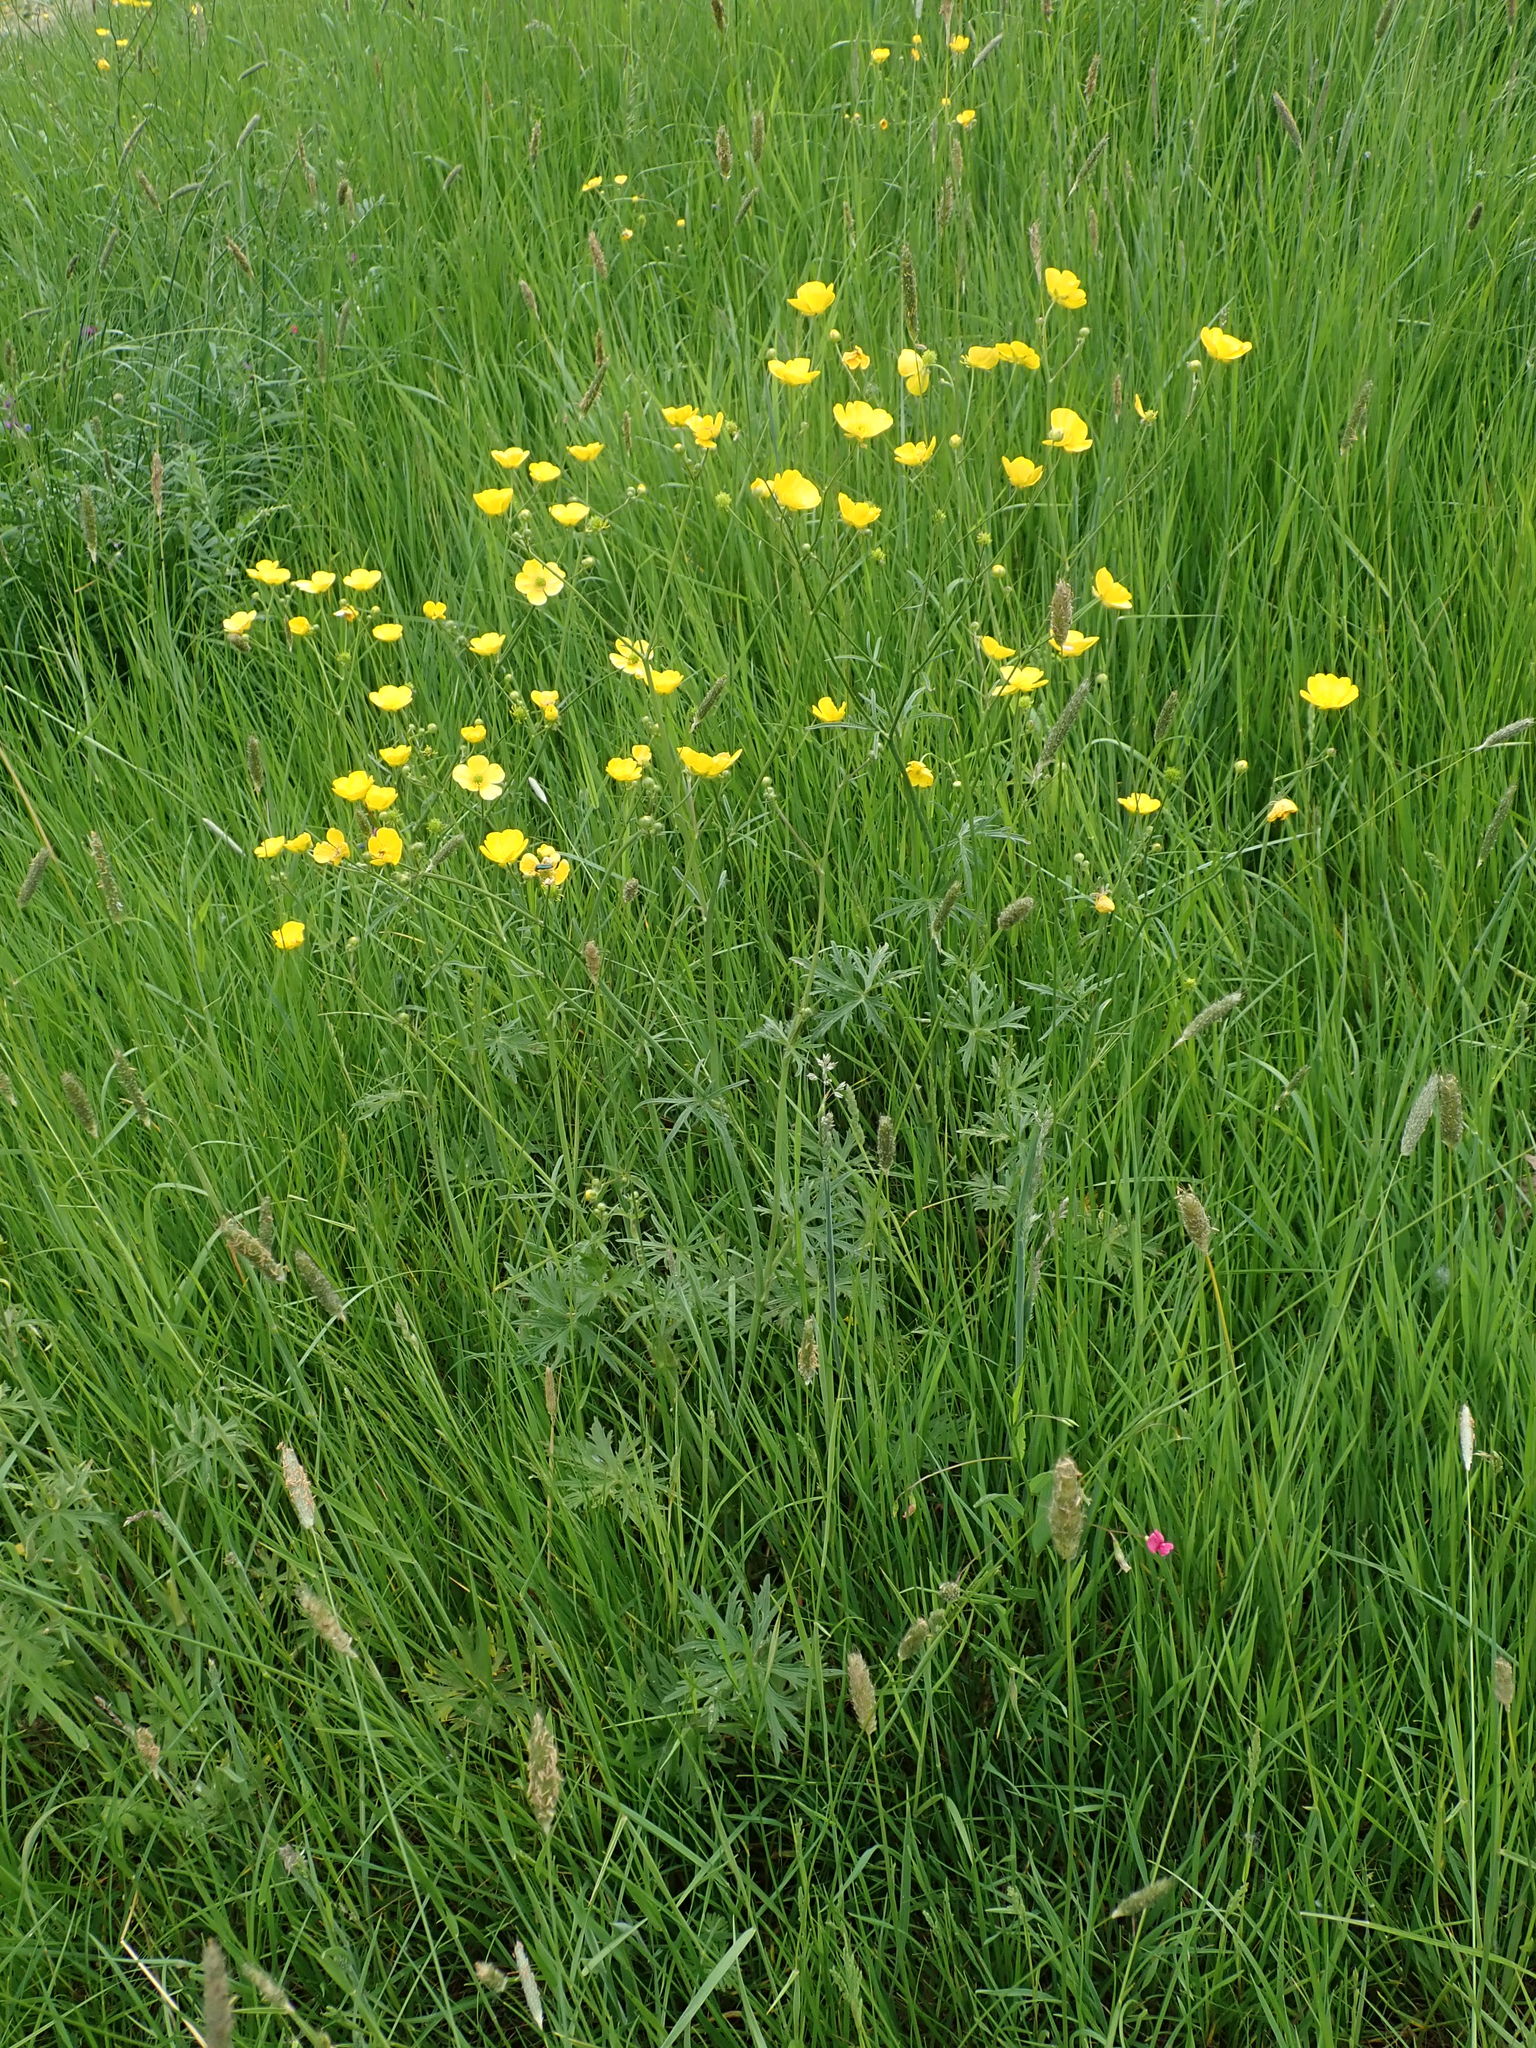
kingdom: Plantae
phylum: Tracheophyta
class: Magnoliopsida
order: Ranunculales
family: Ranunculaceae
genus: Ranunculus
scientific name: Ranunculus acris
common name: Meadow buttercup
